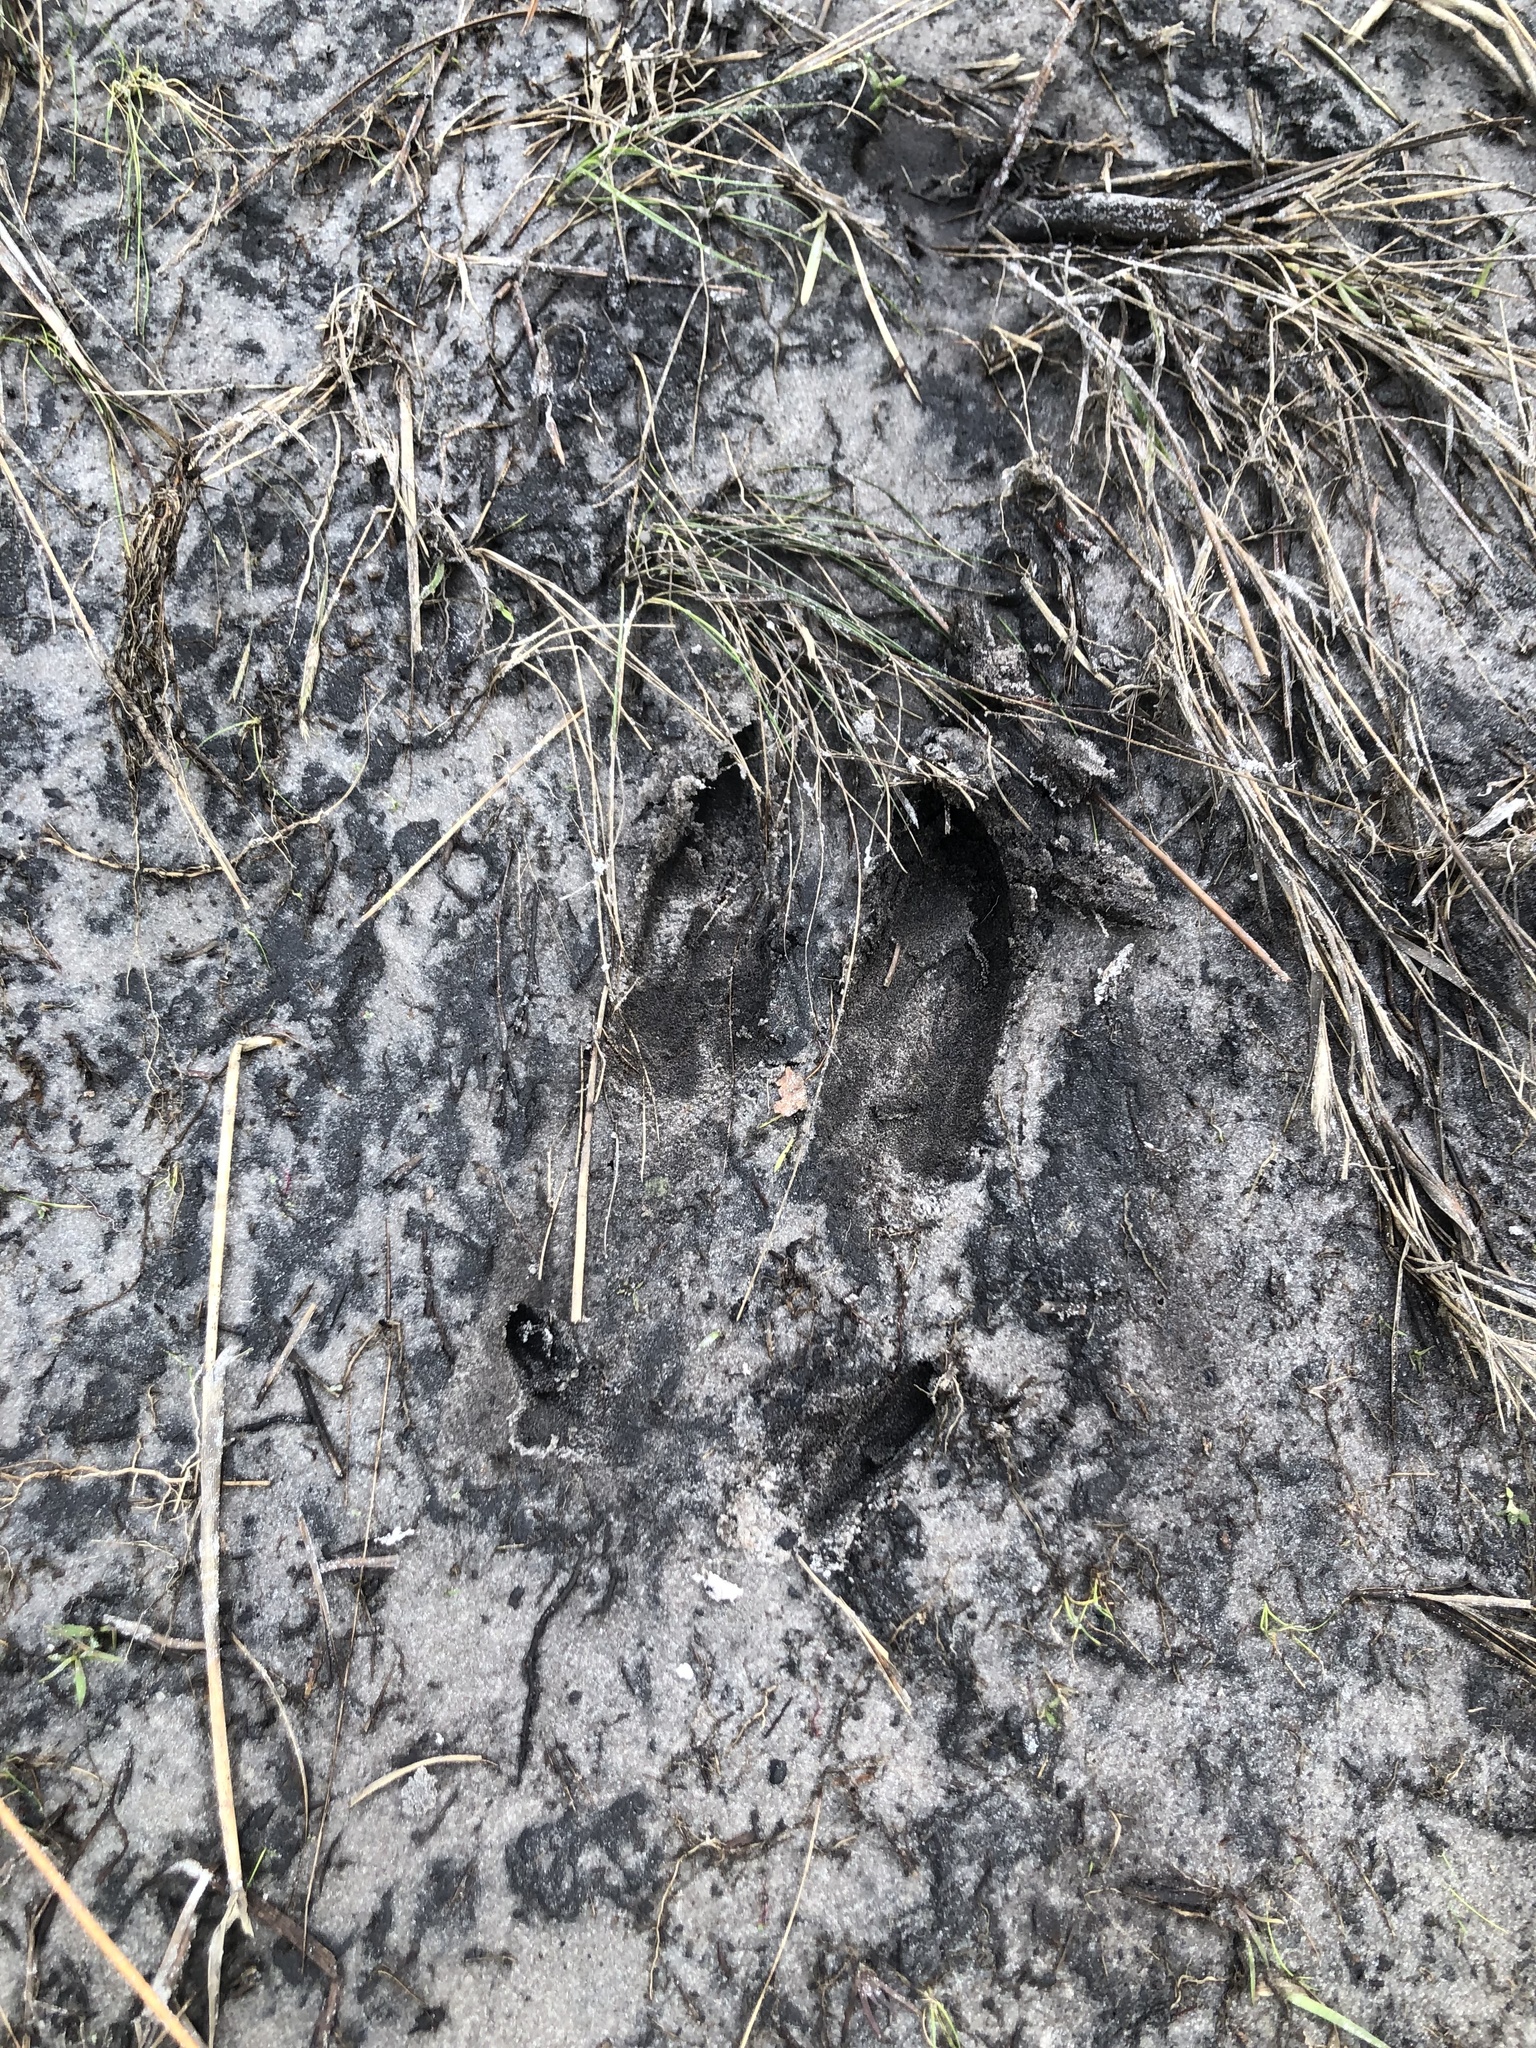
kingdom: Animalia
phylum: Chordata
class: Mammalia
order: Artiodactyla
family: Cervidae
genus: Odocoileus
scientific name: Odocoileus virginianus
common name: White-tailed deer
